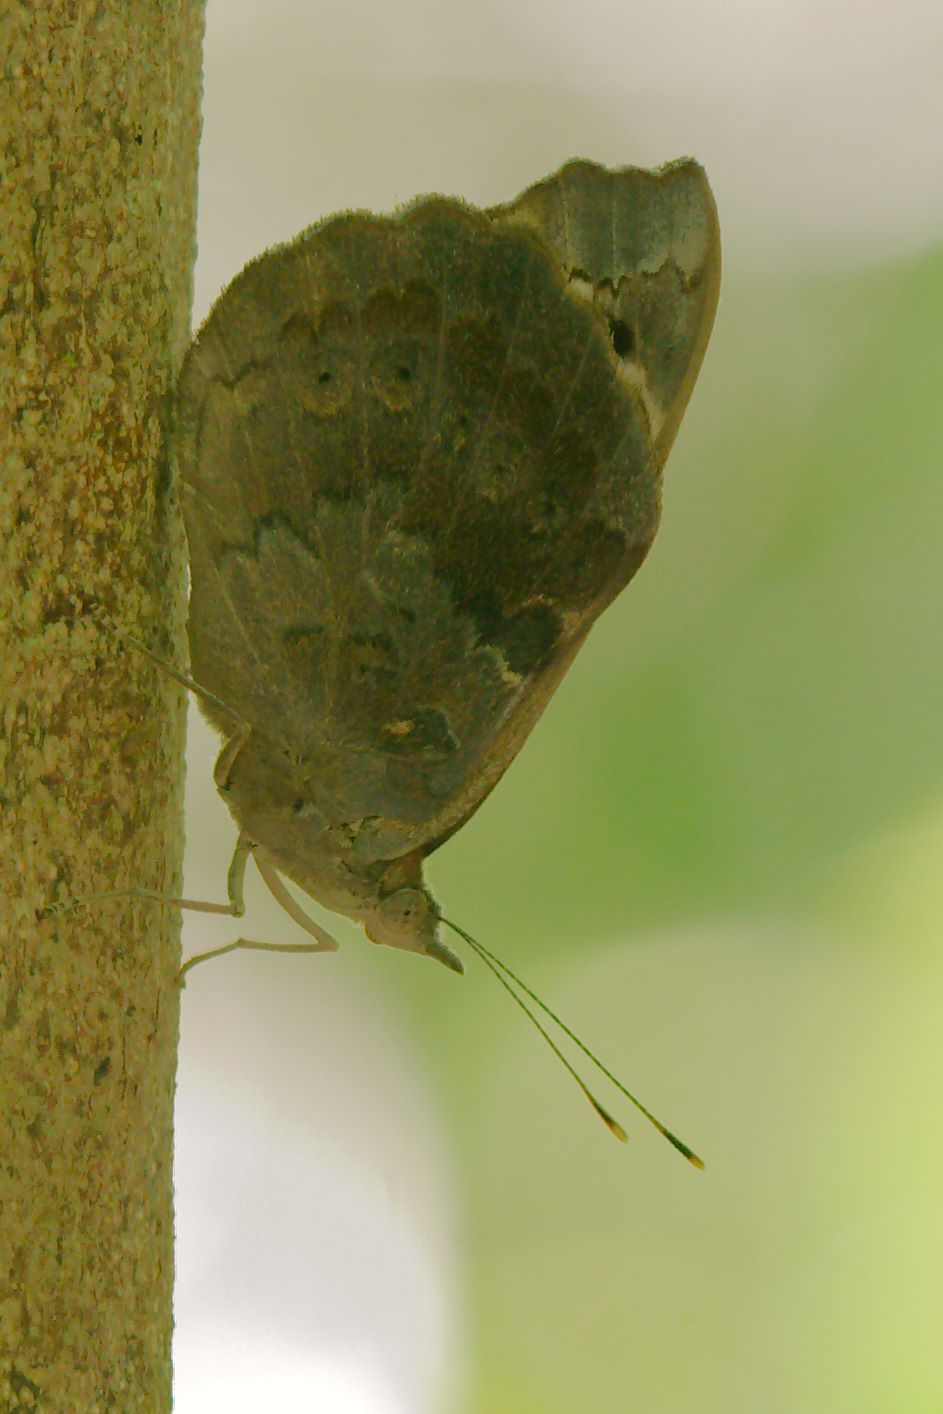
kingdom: Animalia
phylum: Arthropoda
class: Insecta
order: Lepidoptera
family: Nymphalidae
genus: Eunica
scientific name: Eunica tatila
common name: Florida purplewing
